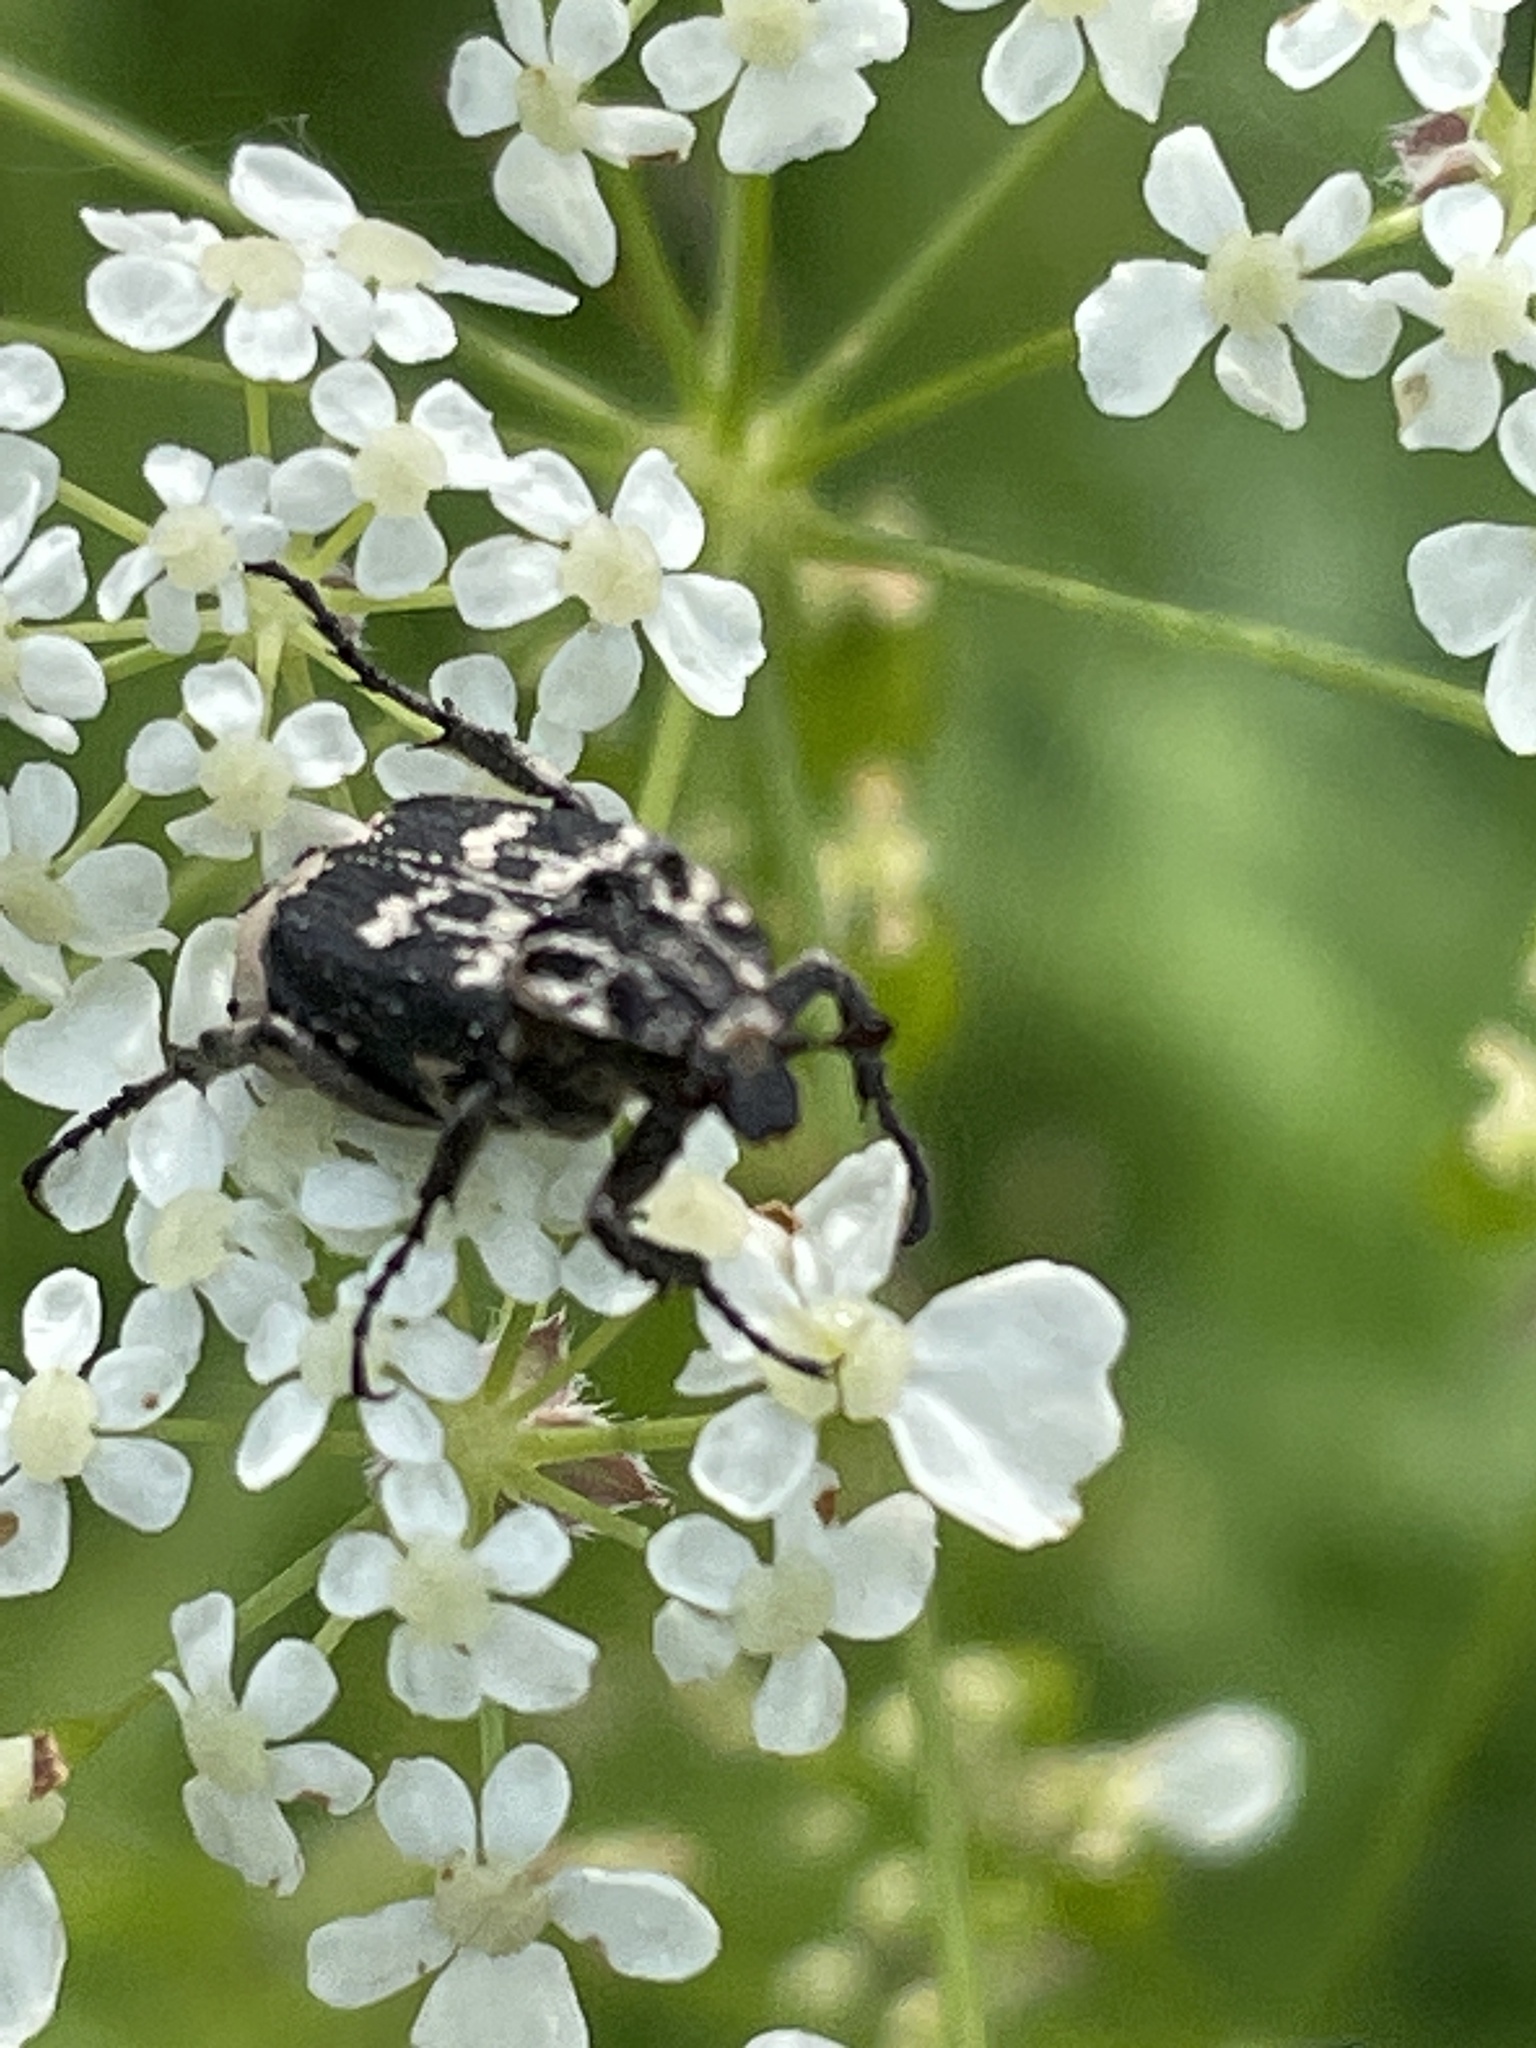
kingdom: Animalia
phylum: Arthropoda
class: Insecta
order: Coleoptera
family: Scarabaeidae
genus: Valgus
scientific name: Valgus hemipterus
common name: Bug flower chafer
